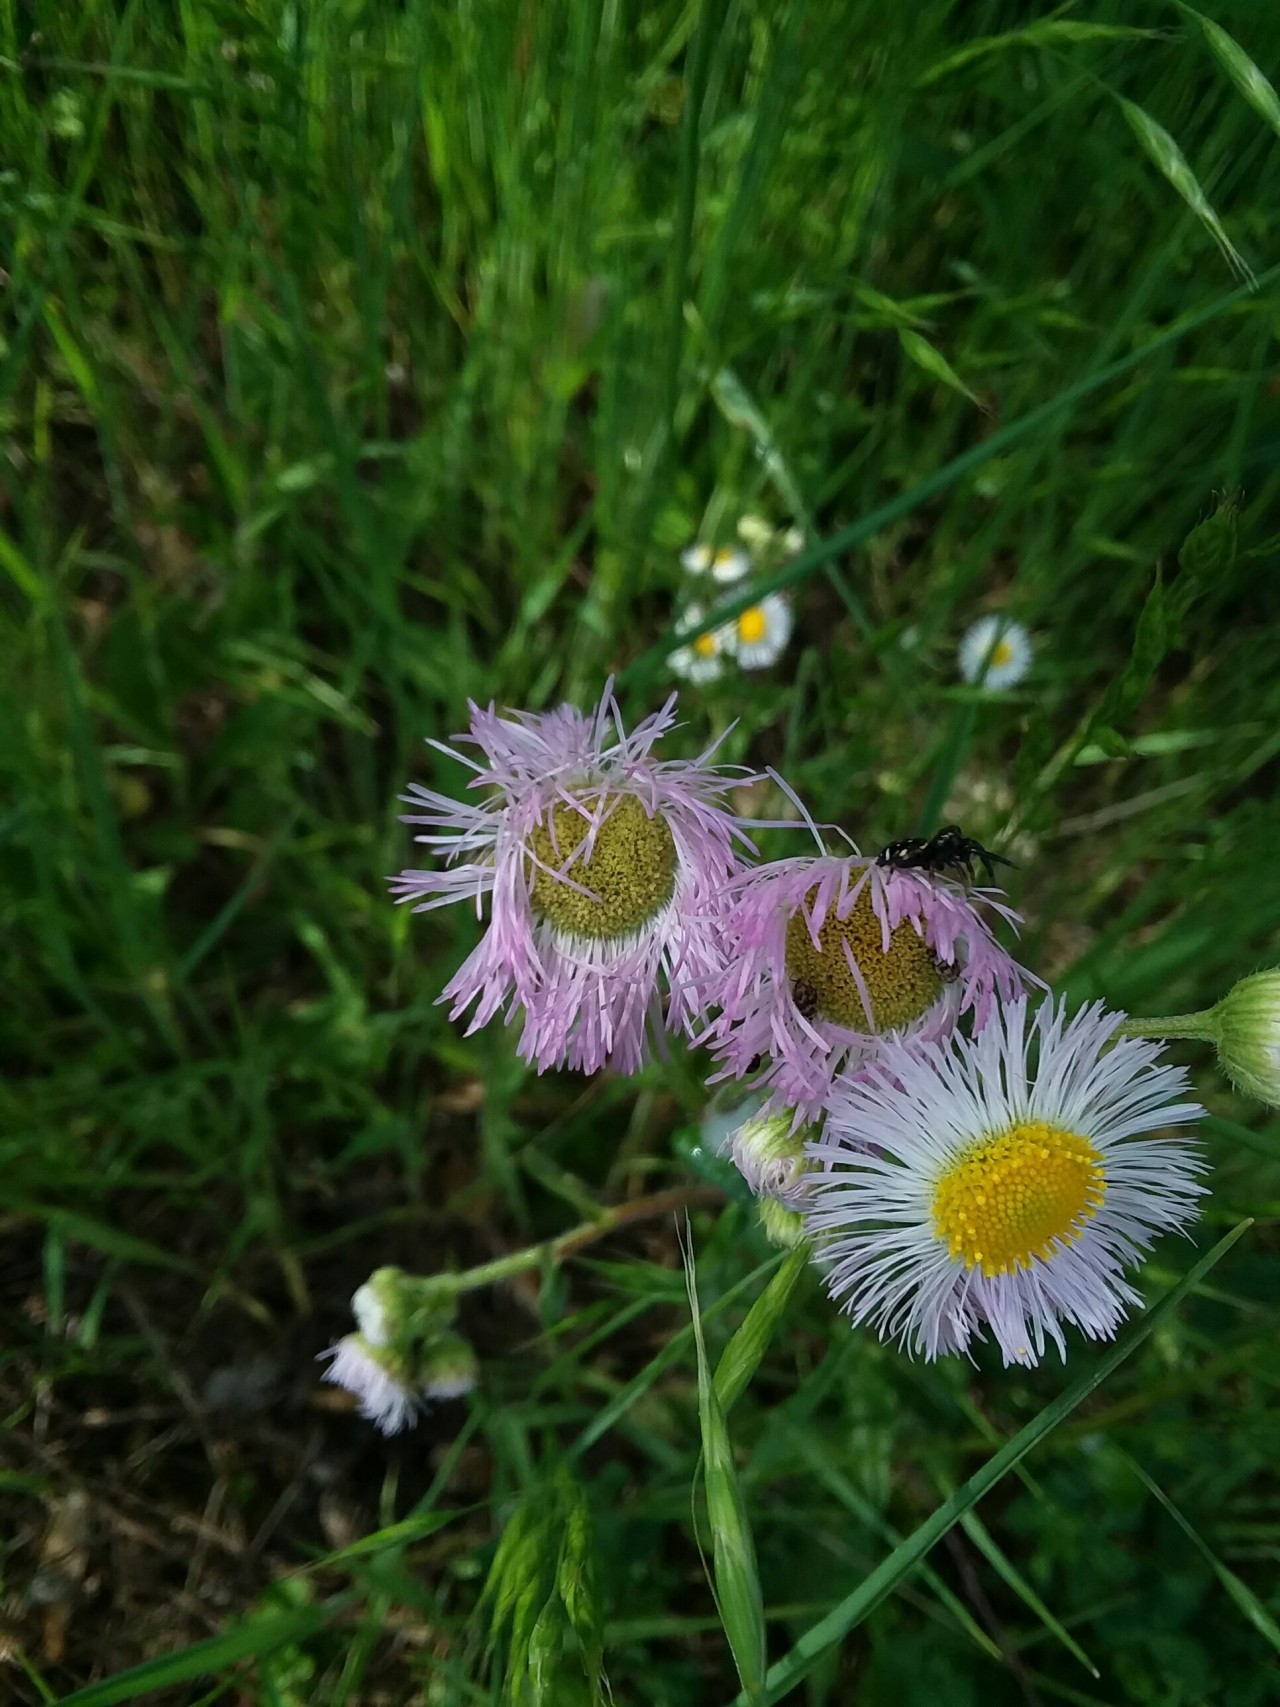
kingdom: Plantae
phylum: Tracheophyta
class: Magnoliopsida
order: Asterales
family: Asteraceae
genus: Erigeron
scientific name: Erigeron philadelphicus
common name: Robin's-plantain
